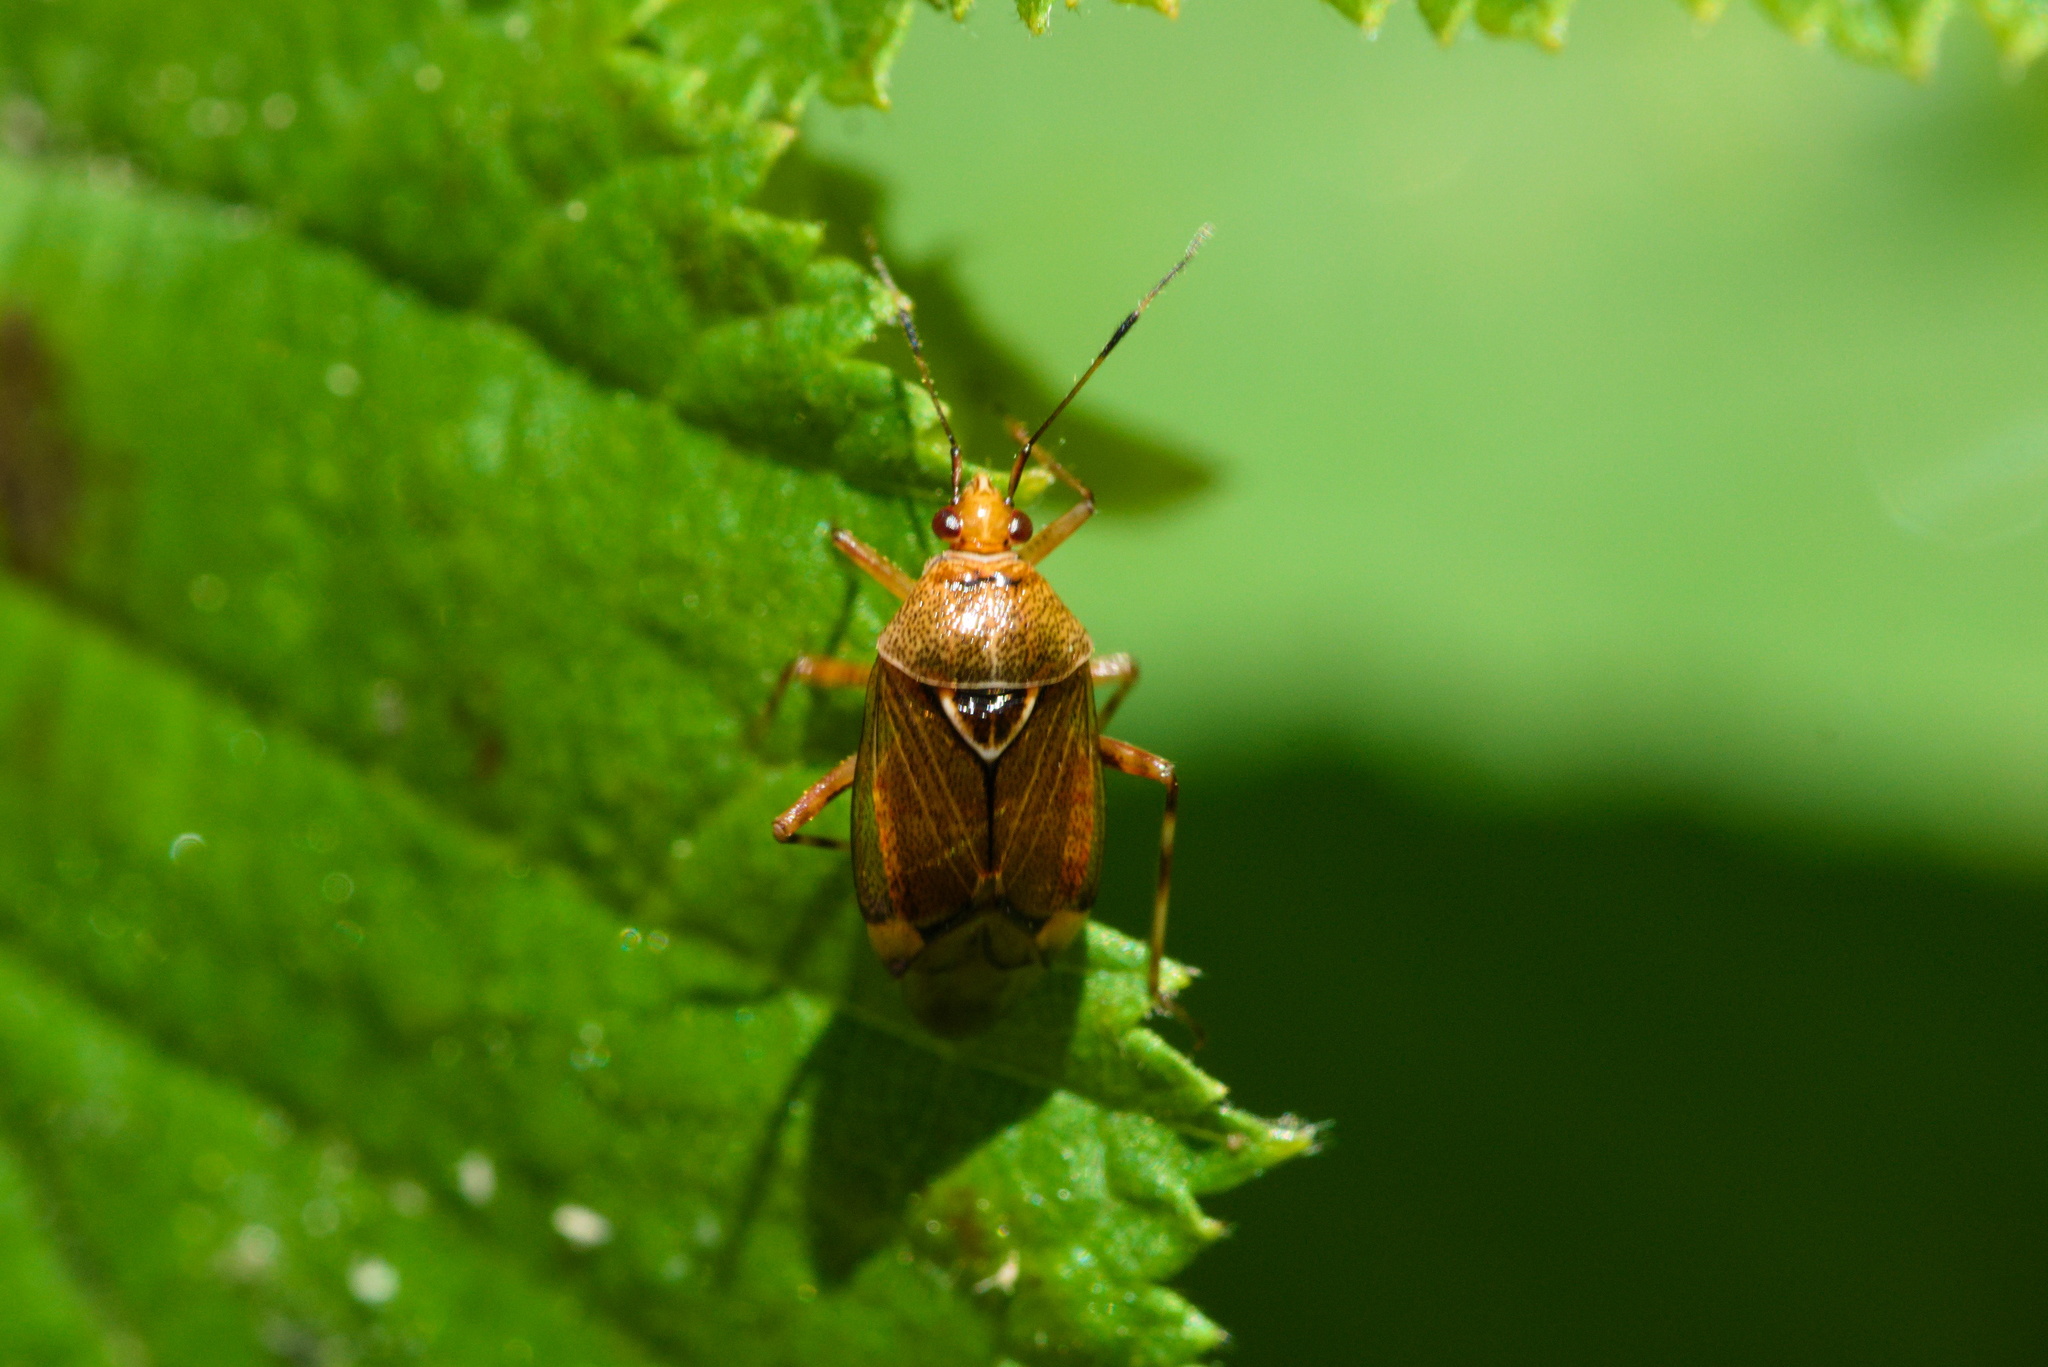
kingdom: Animalia
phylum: Arthropoda
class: Insecta
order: Hemiptera
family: Miridae
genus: Deraeocoris
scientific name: Deraeocoris flavilinea
